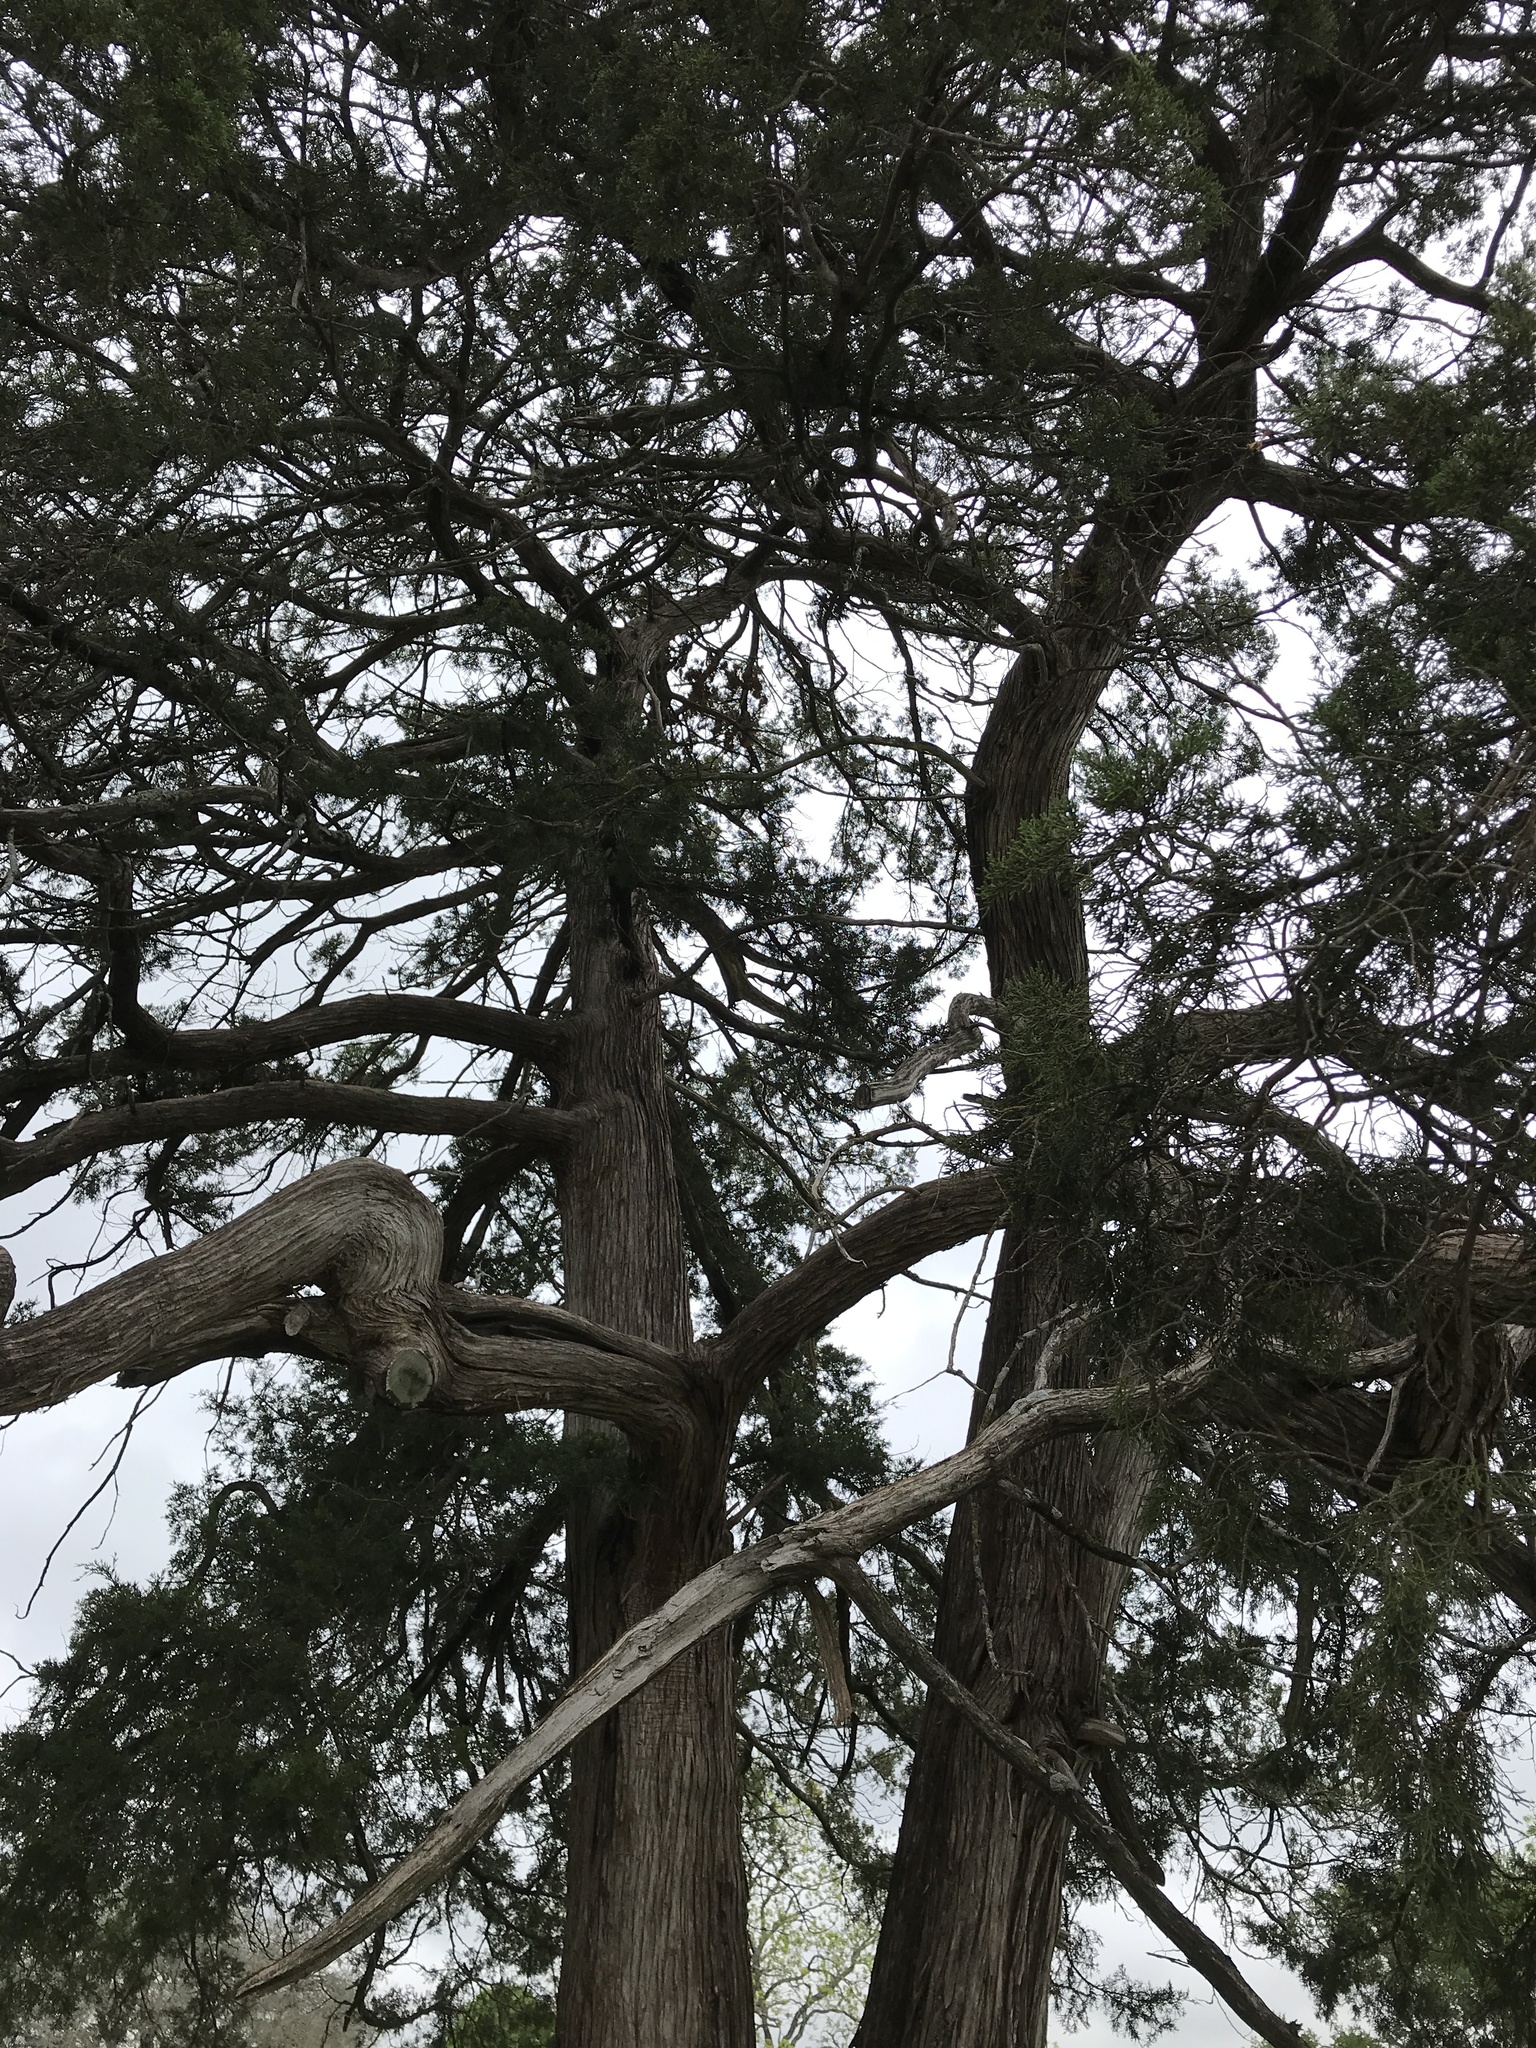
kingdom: Plantae
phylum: Tracheophyta
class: Pinopsida
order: Pinales
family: Cupressaceae
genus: Juniperus
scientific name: Juniperus virginiana
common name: Red juniper
